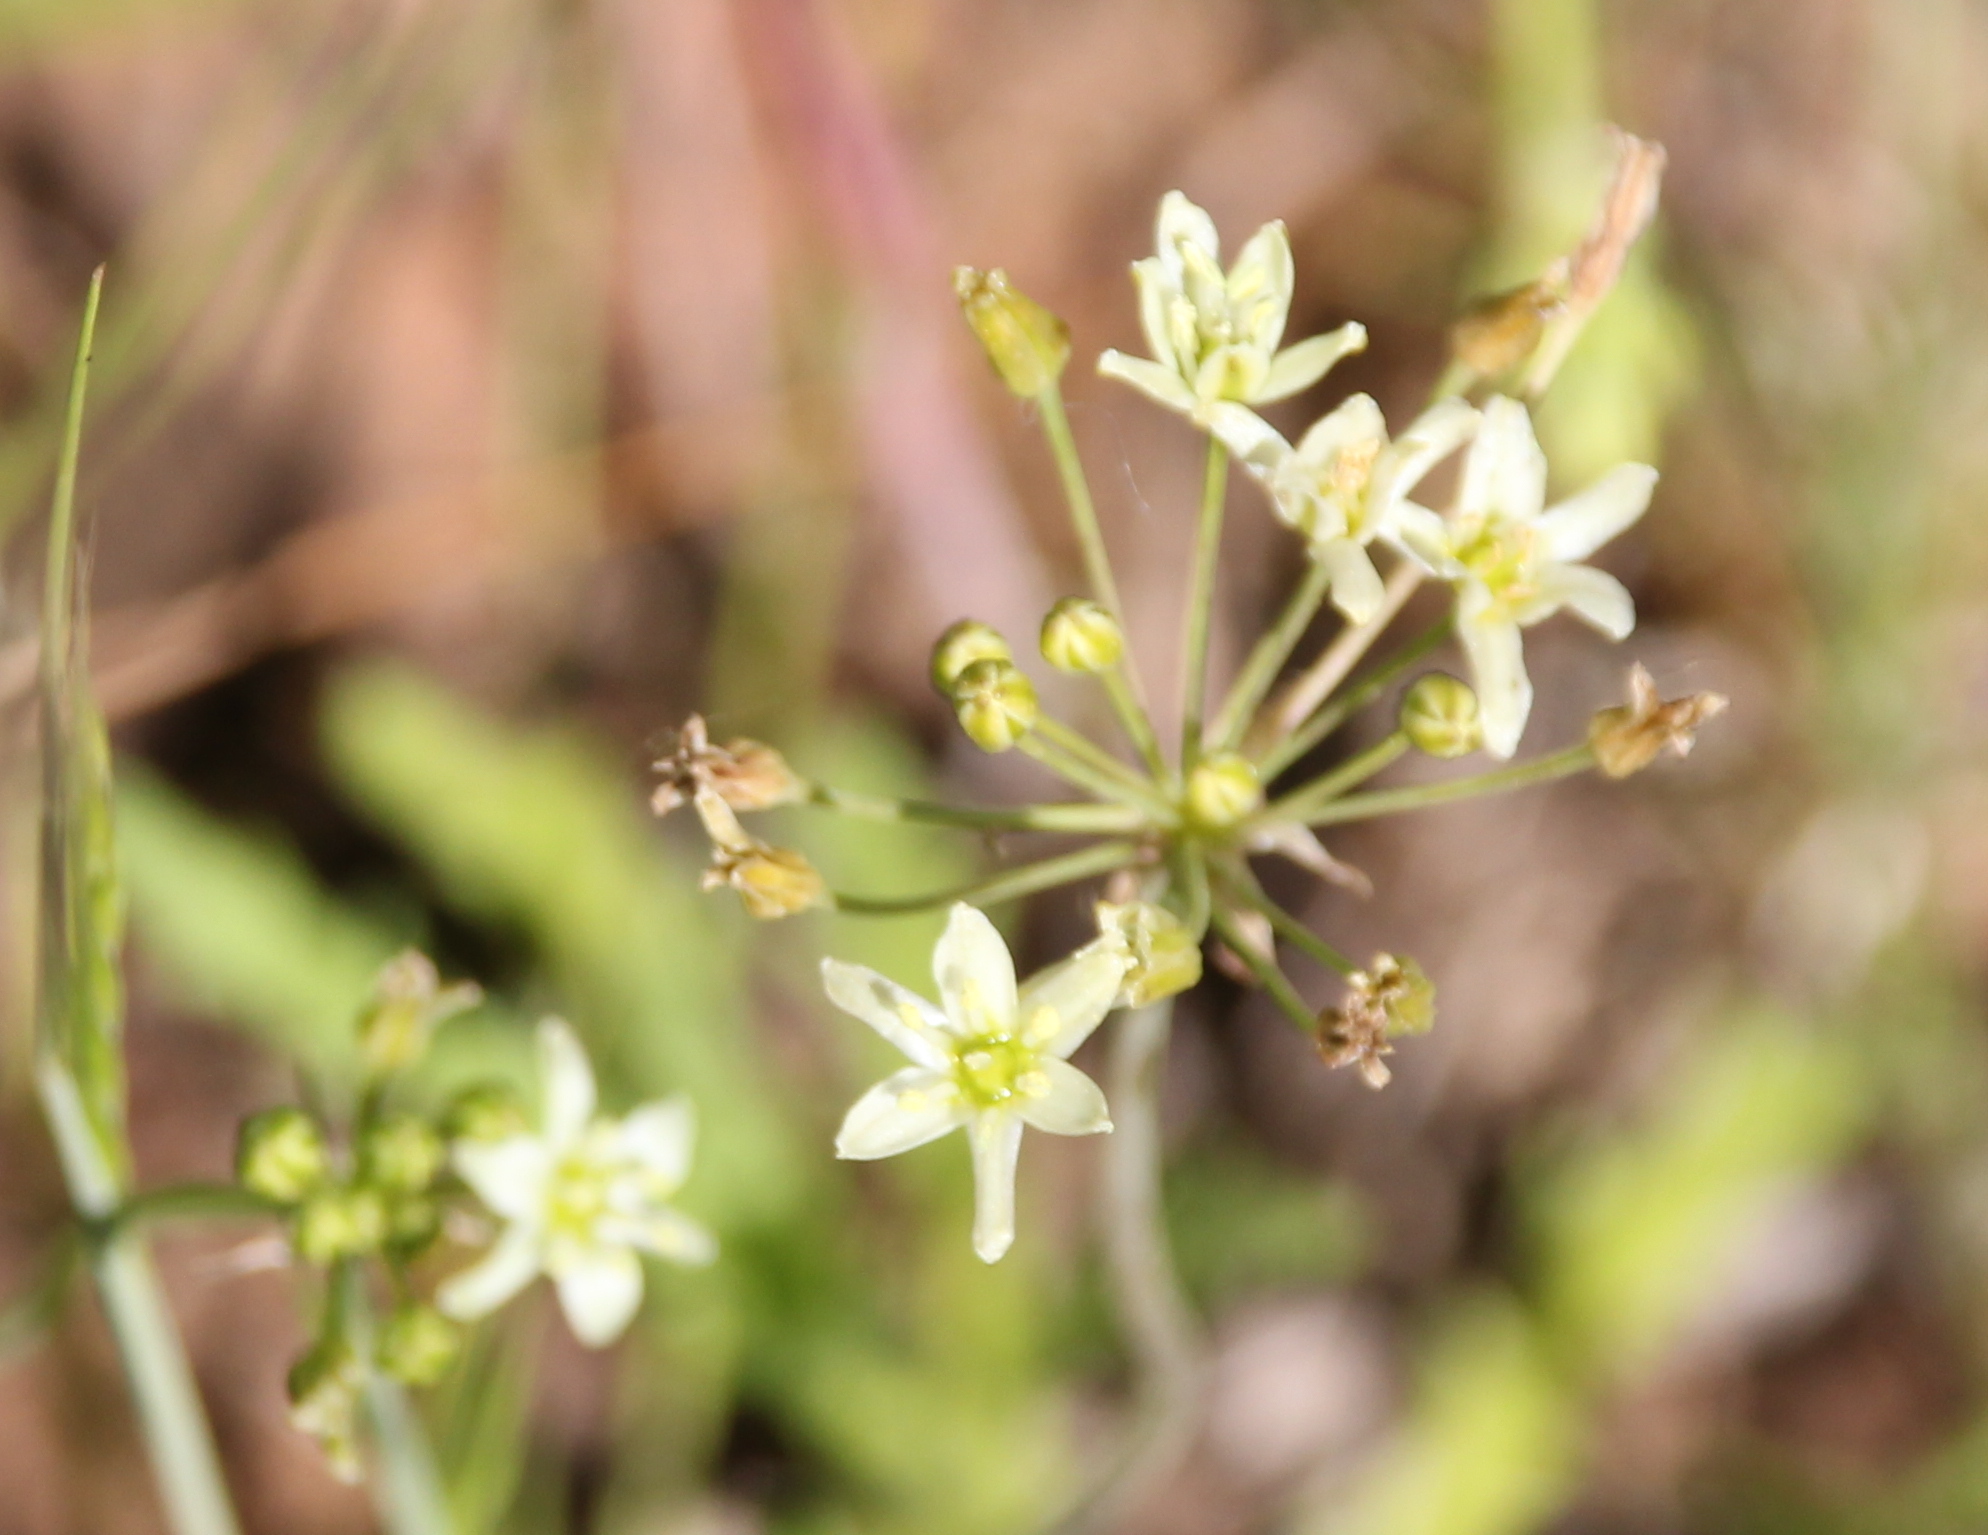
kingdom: Plantae
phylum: Tracheophyta
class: Liliopsida
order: Asparagales
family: Asparagaceae
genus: Muilla
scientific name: Muilla maritima
